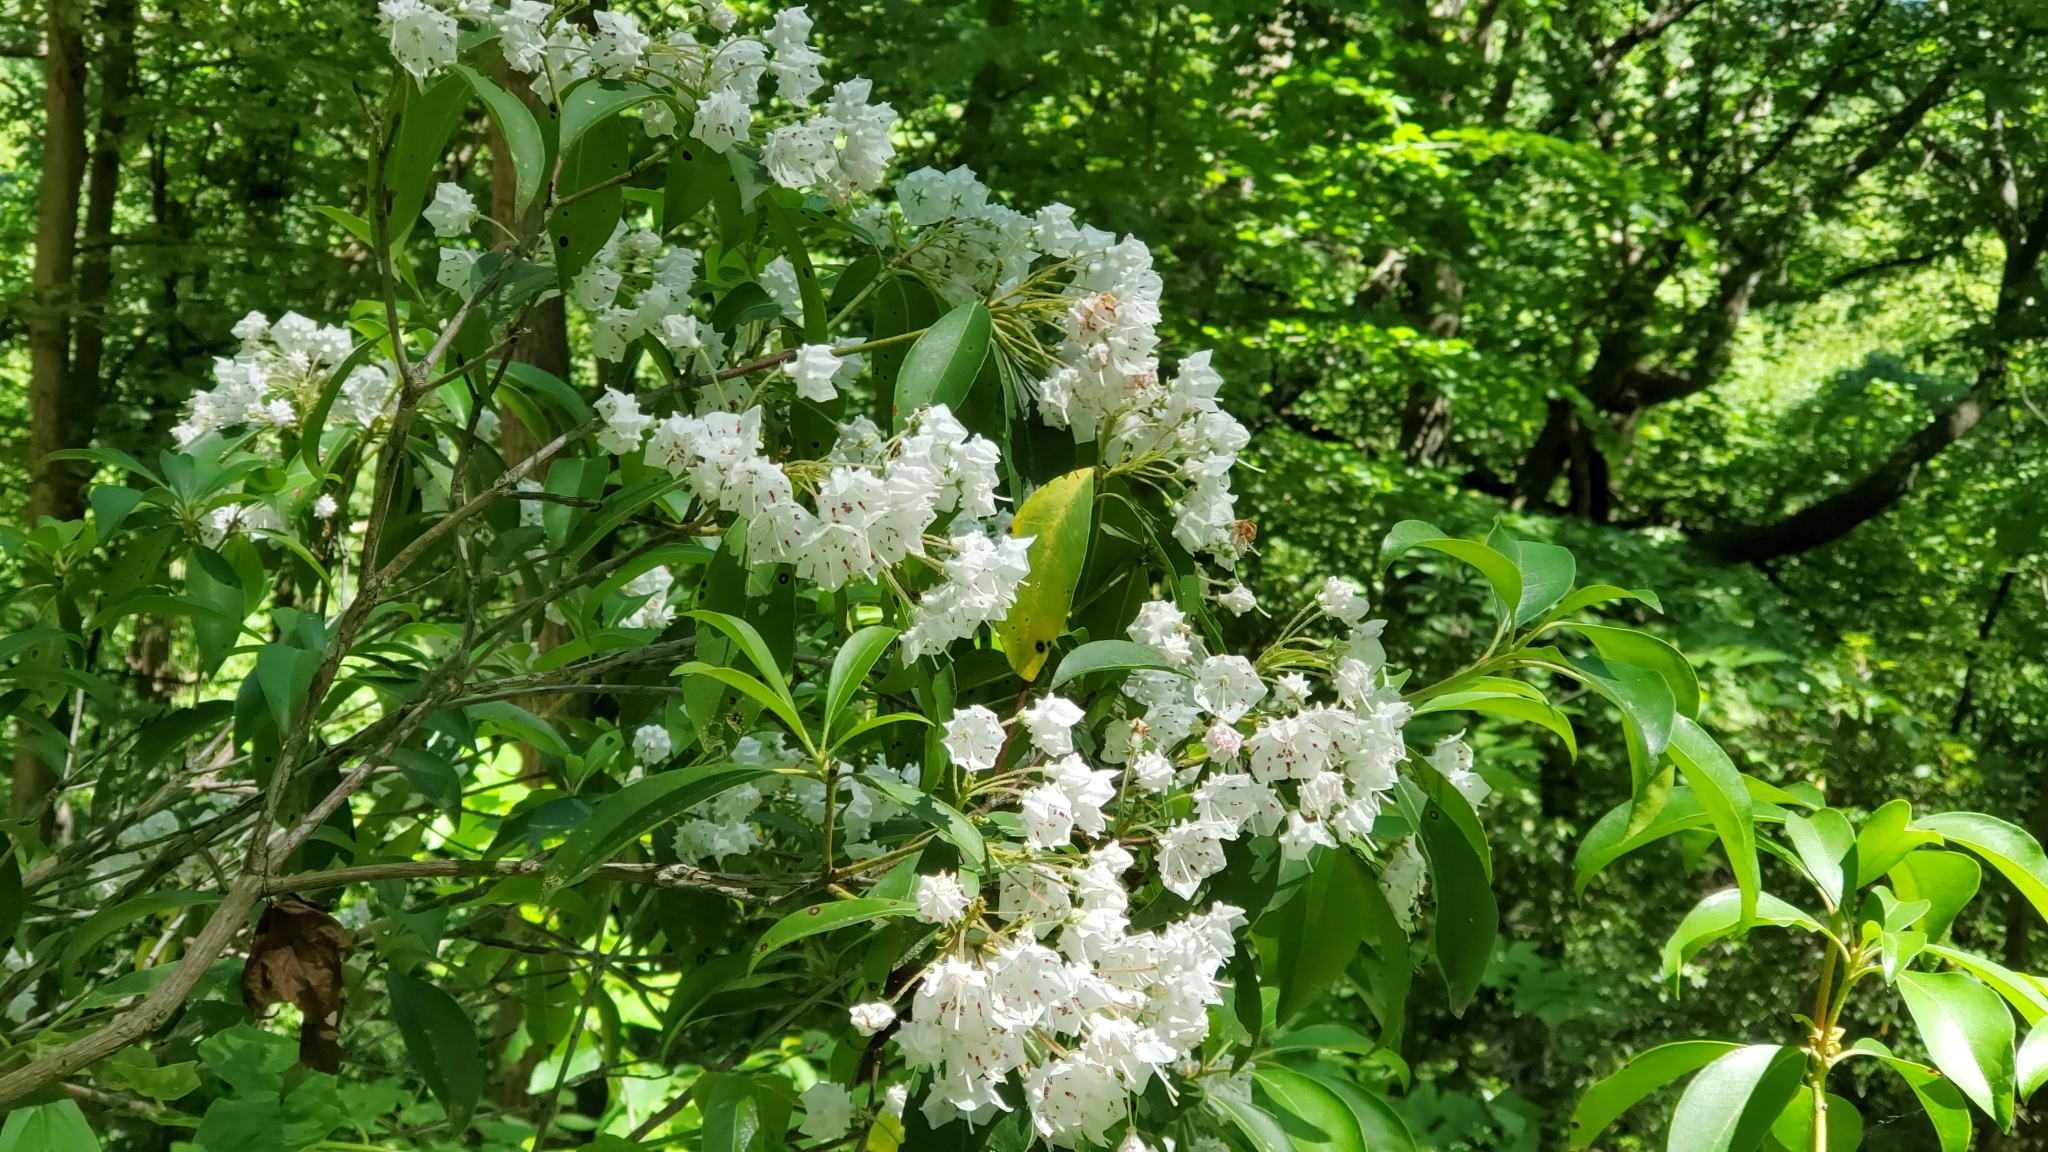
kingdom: Plantae
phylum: Tracheophyta
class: Magnoliopsida
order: Ericales
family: Ericaceae
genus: Kalmia
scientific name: Kalmia latifolia
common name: Mountain-laurel
